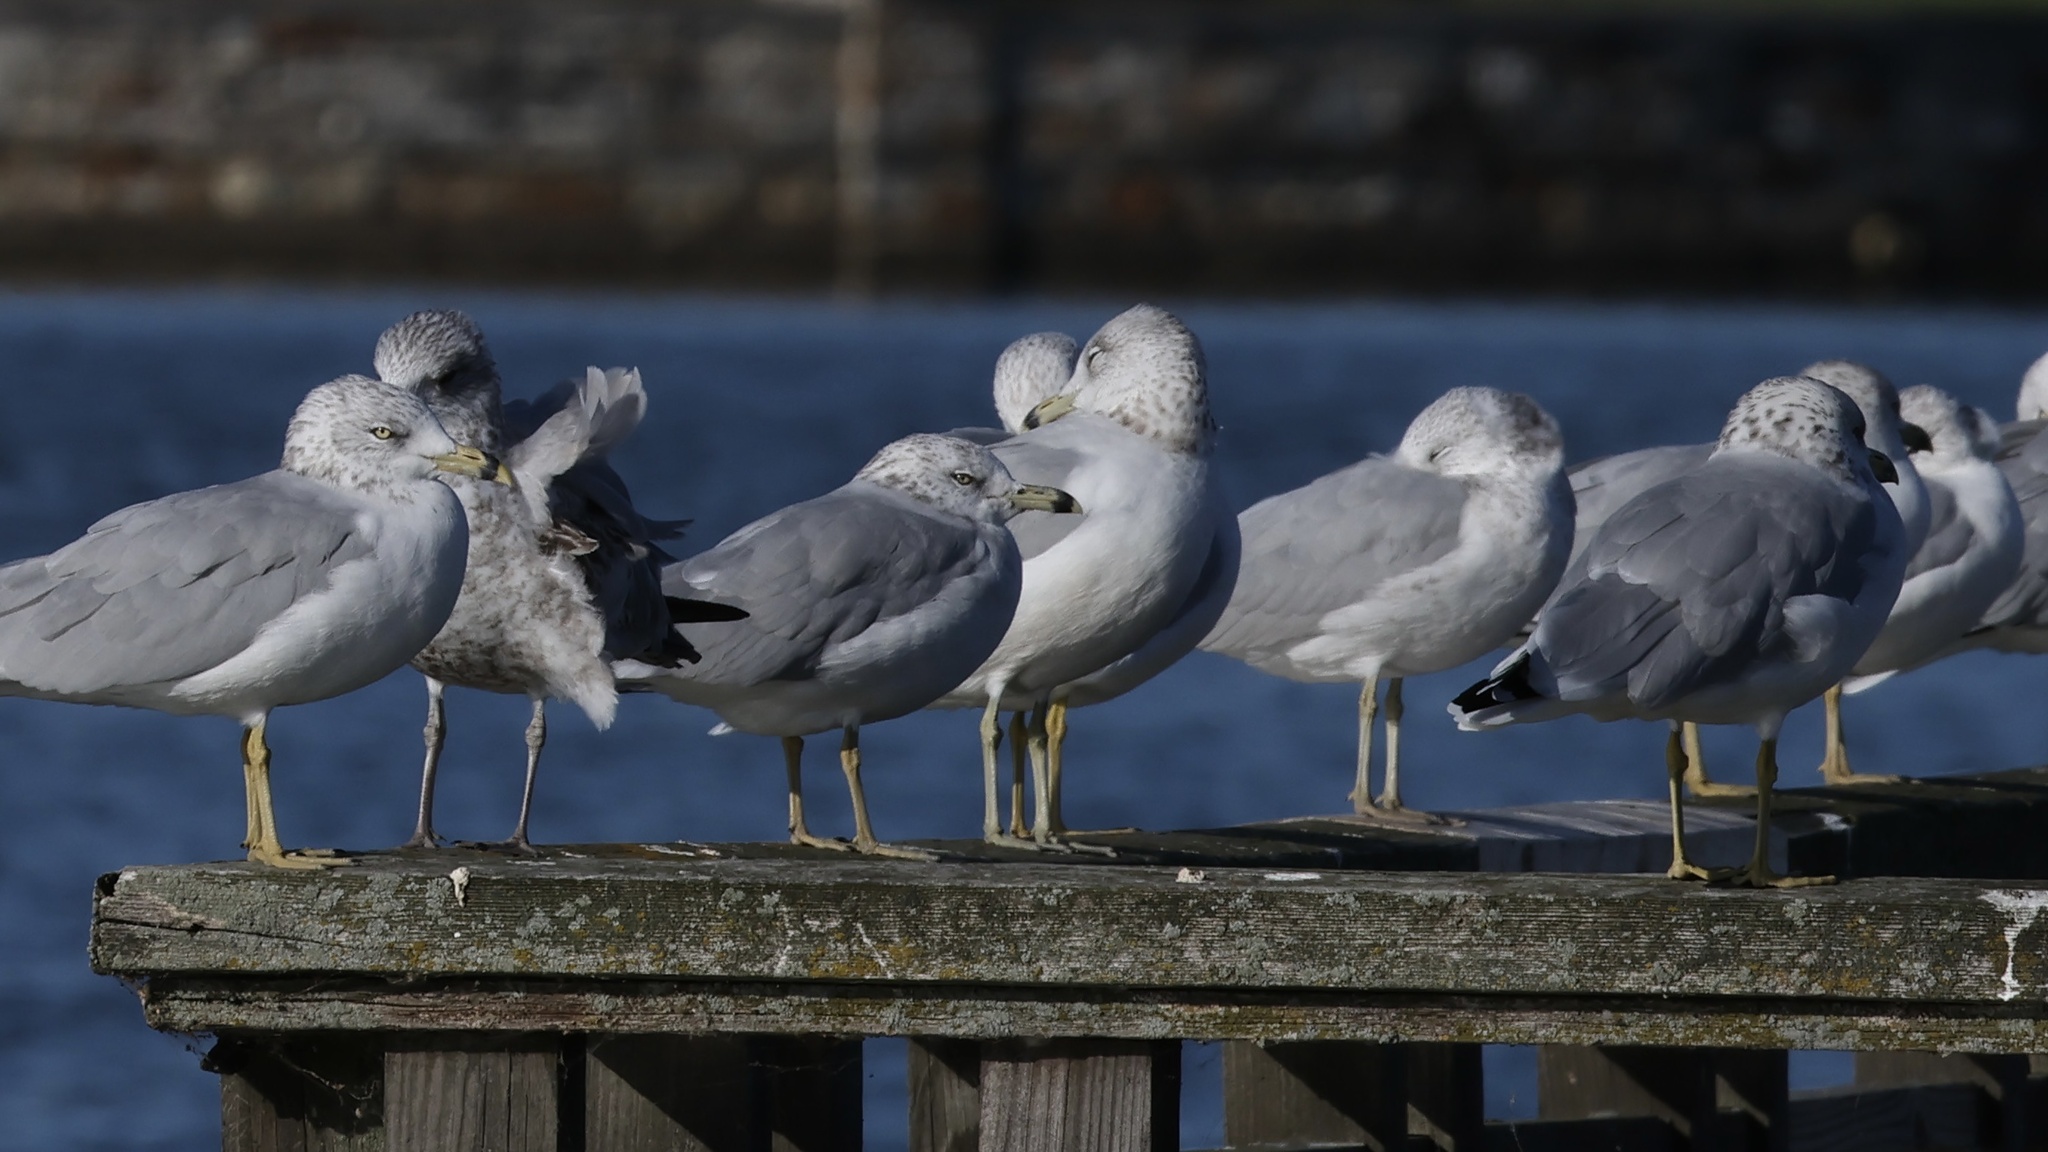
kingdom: Animalia
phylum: Chordata
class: Aves
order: Charadriiformes
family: Laridae
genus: Larus
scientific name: Larus delawarensis
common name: Ring-billed gull
